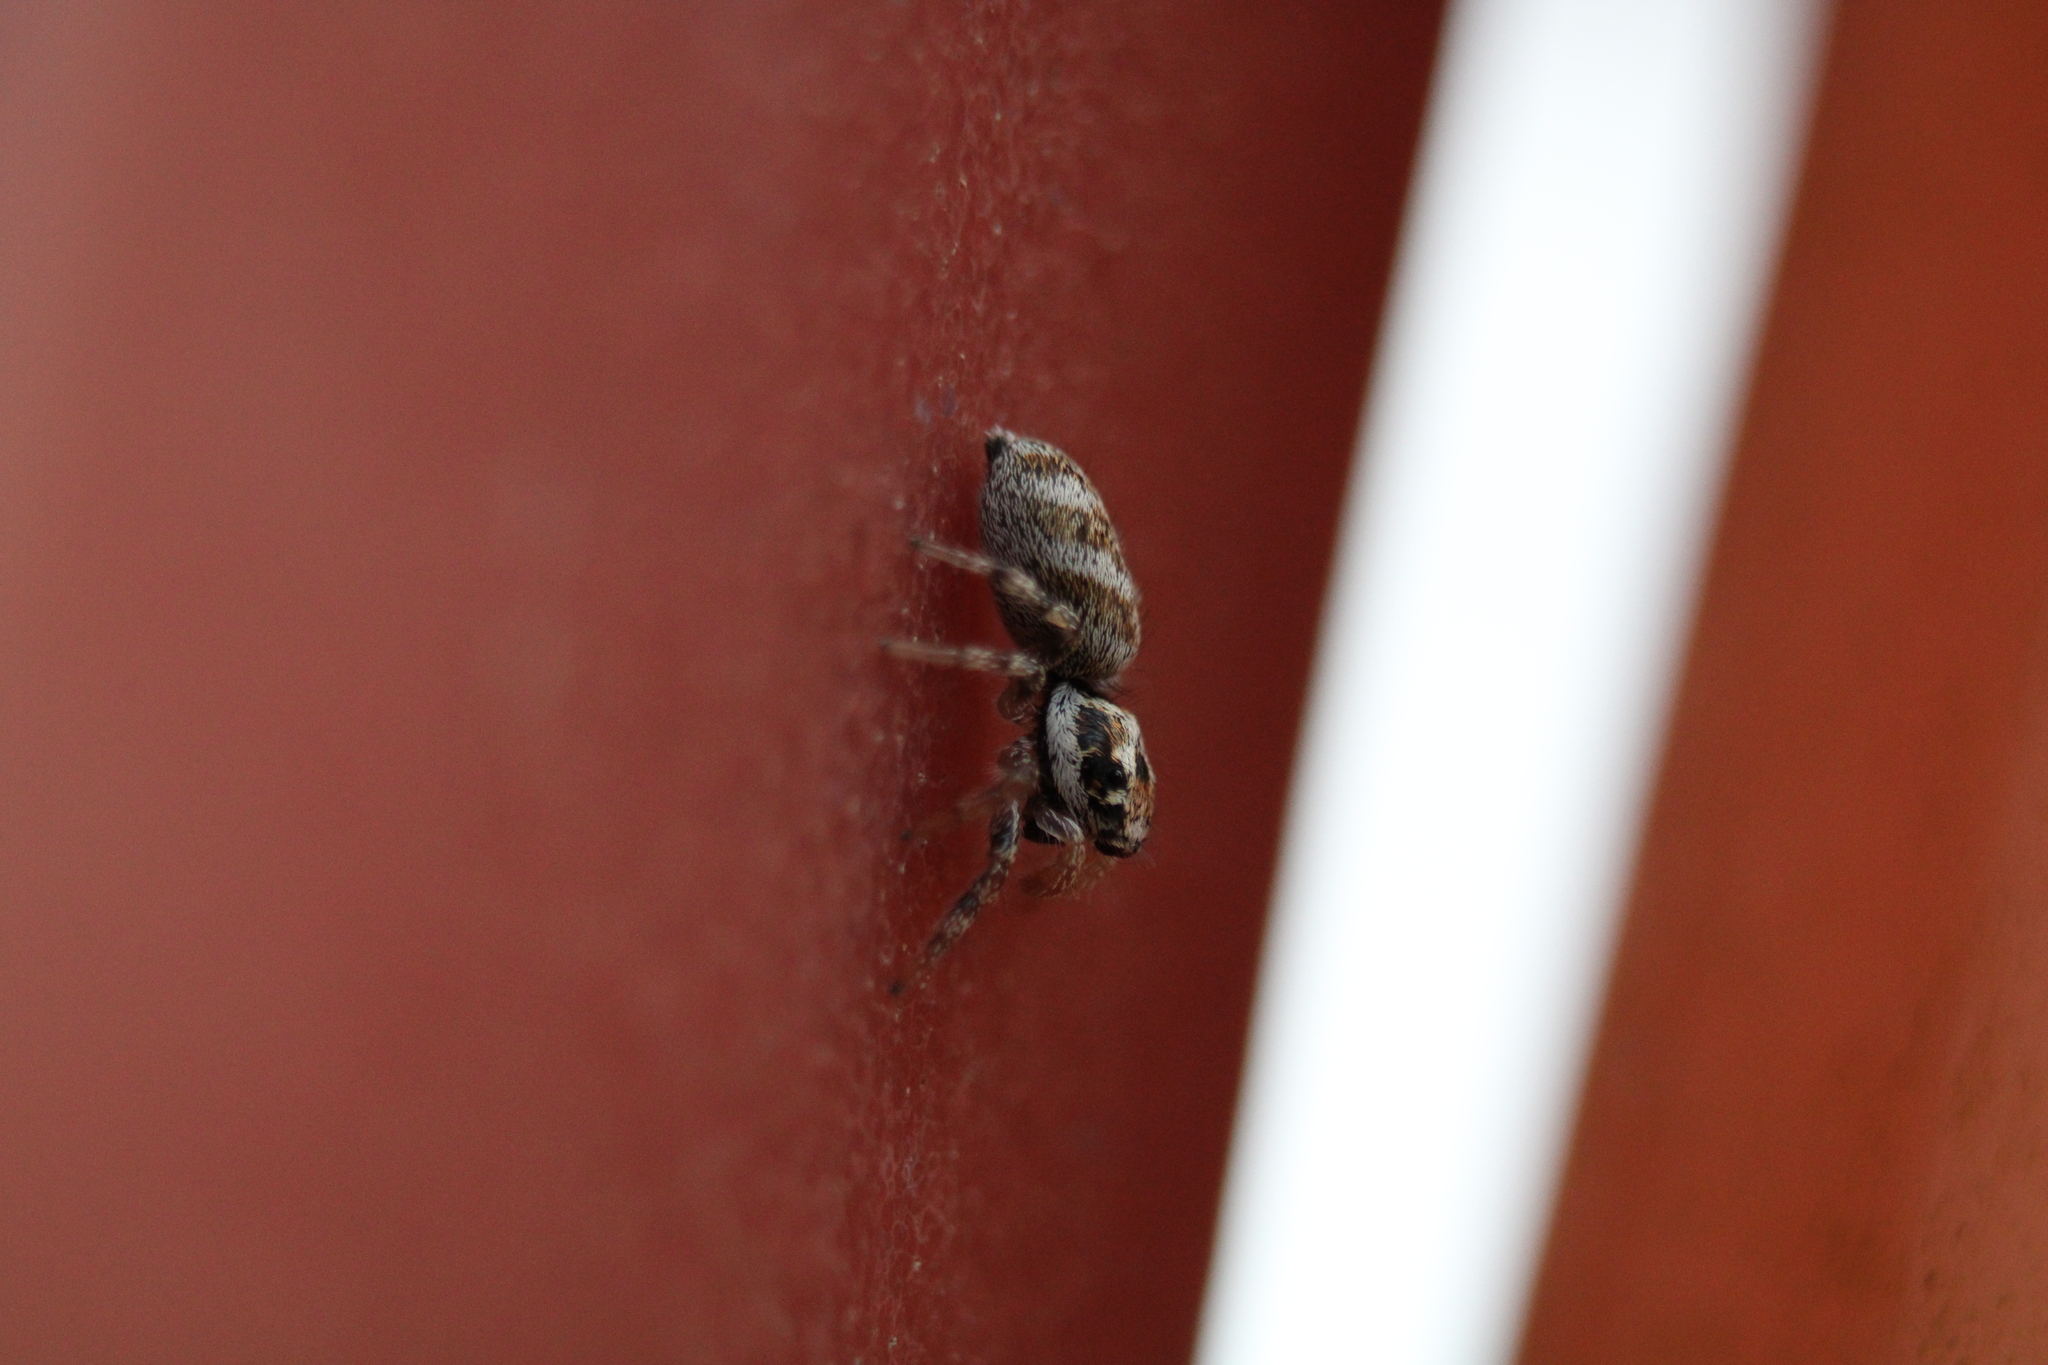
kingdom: Animalia
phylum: Arthropoda
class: Arachnida
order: Araneae
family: Salticidae
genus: Salticus
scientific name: Salticus scenicus
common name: Zebra jumper
